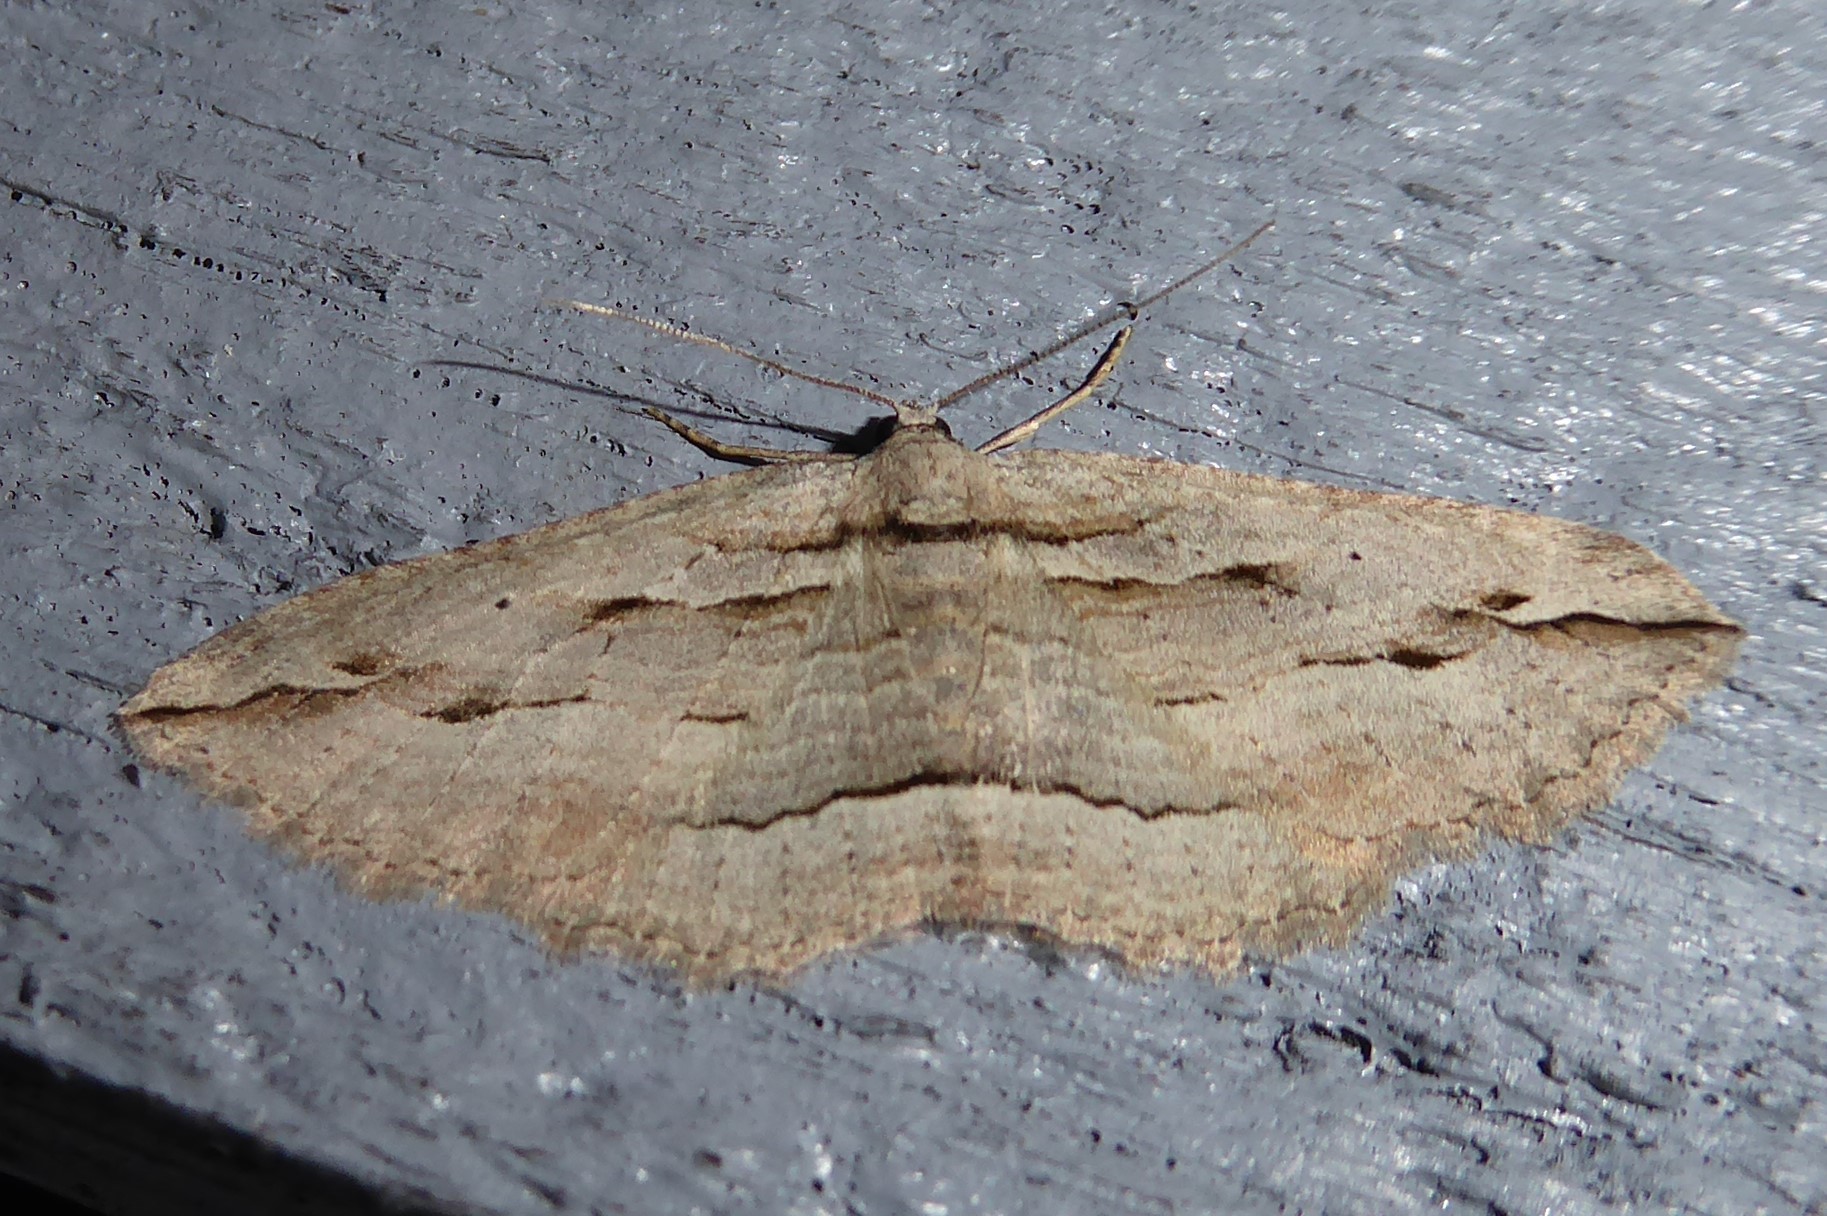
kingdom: Animalia
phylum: Arthropoda
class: Insecta
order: Lepidoptera
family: Geometridae
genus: Austrocidaria
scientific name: Austrocidaria gobiata
